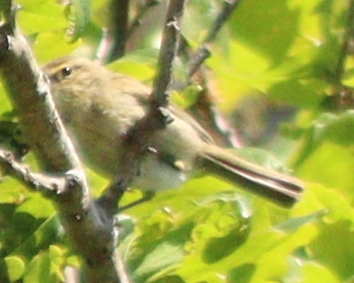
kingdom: Animalia
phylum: Chordata
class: Aves
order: Passeriformes
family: Phylloscopidae
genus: Phylloscopus
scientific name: Phylloscopus collybita
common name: Common chiffchaff
